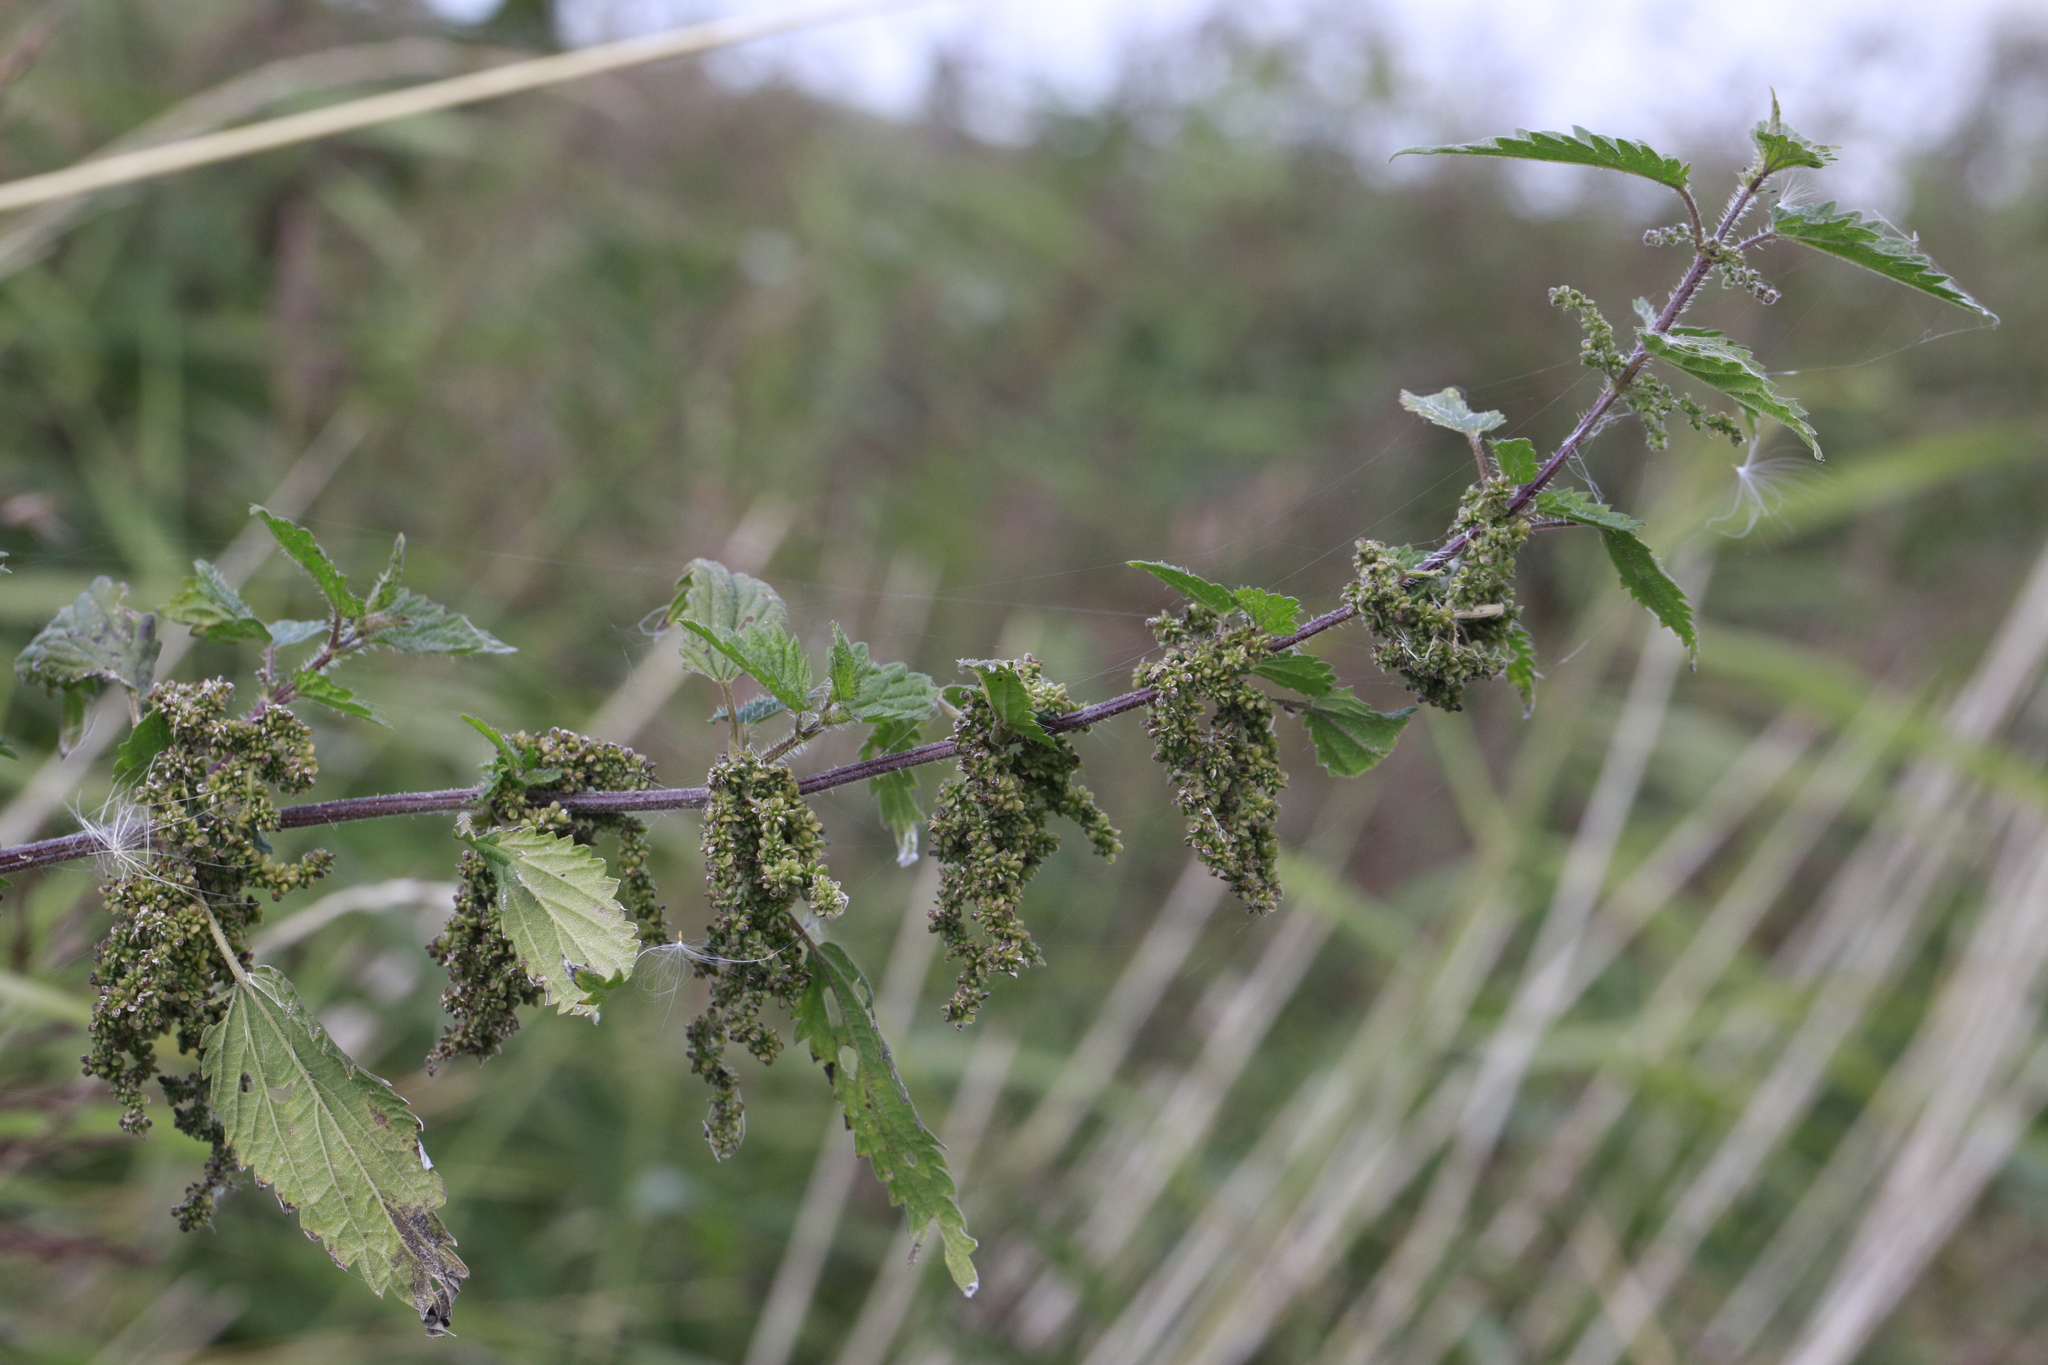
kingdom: Plantae
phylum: Tracheophyta
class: Magnoliopsida
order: Rosales
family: Urticaceae
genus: Urtica
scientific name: Urtica dioica
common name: Common nettle
